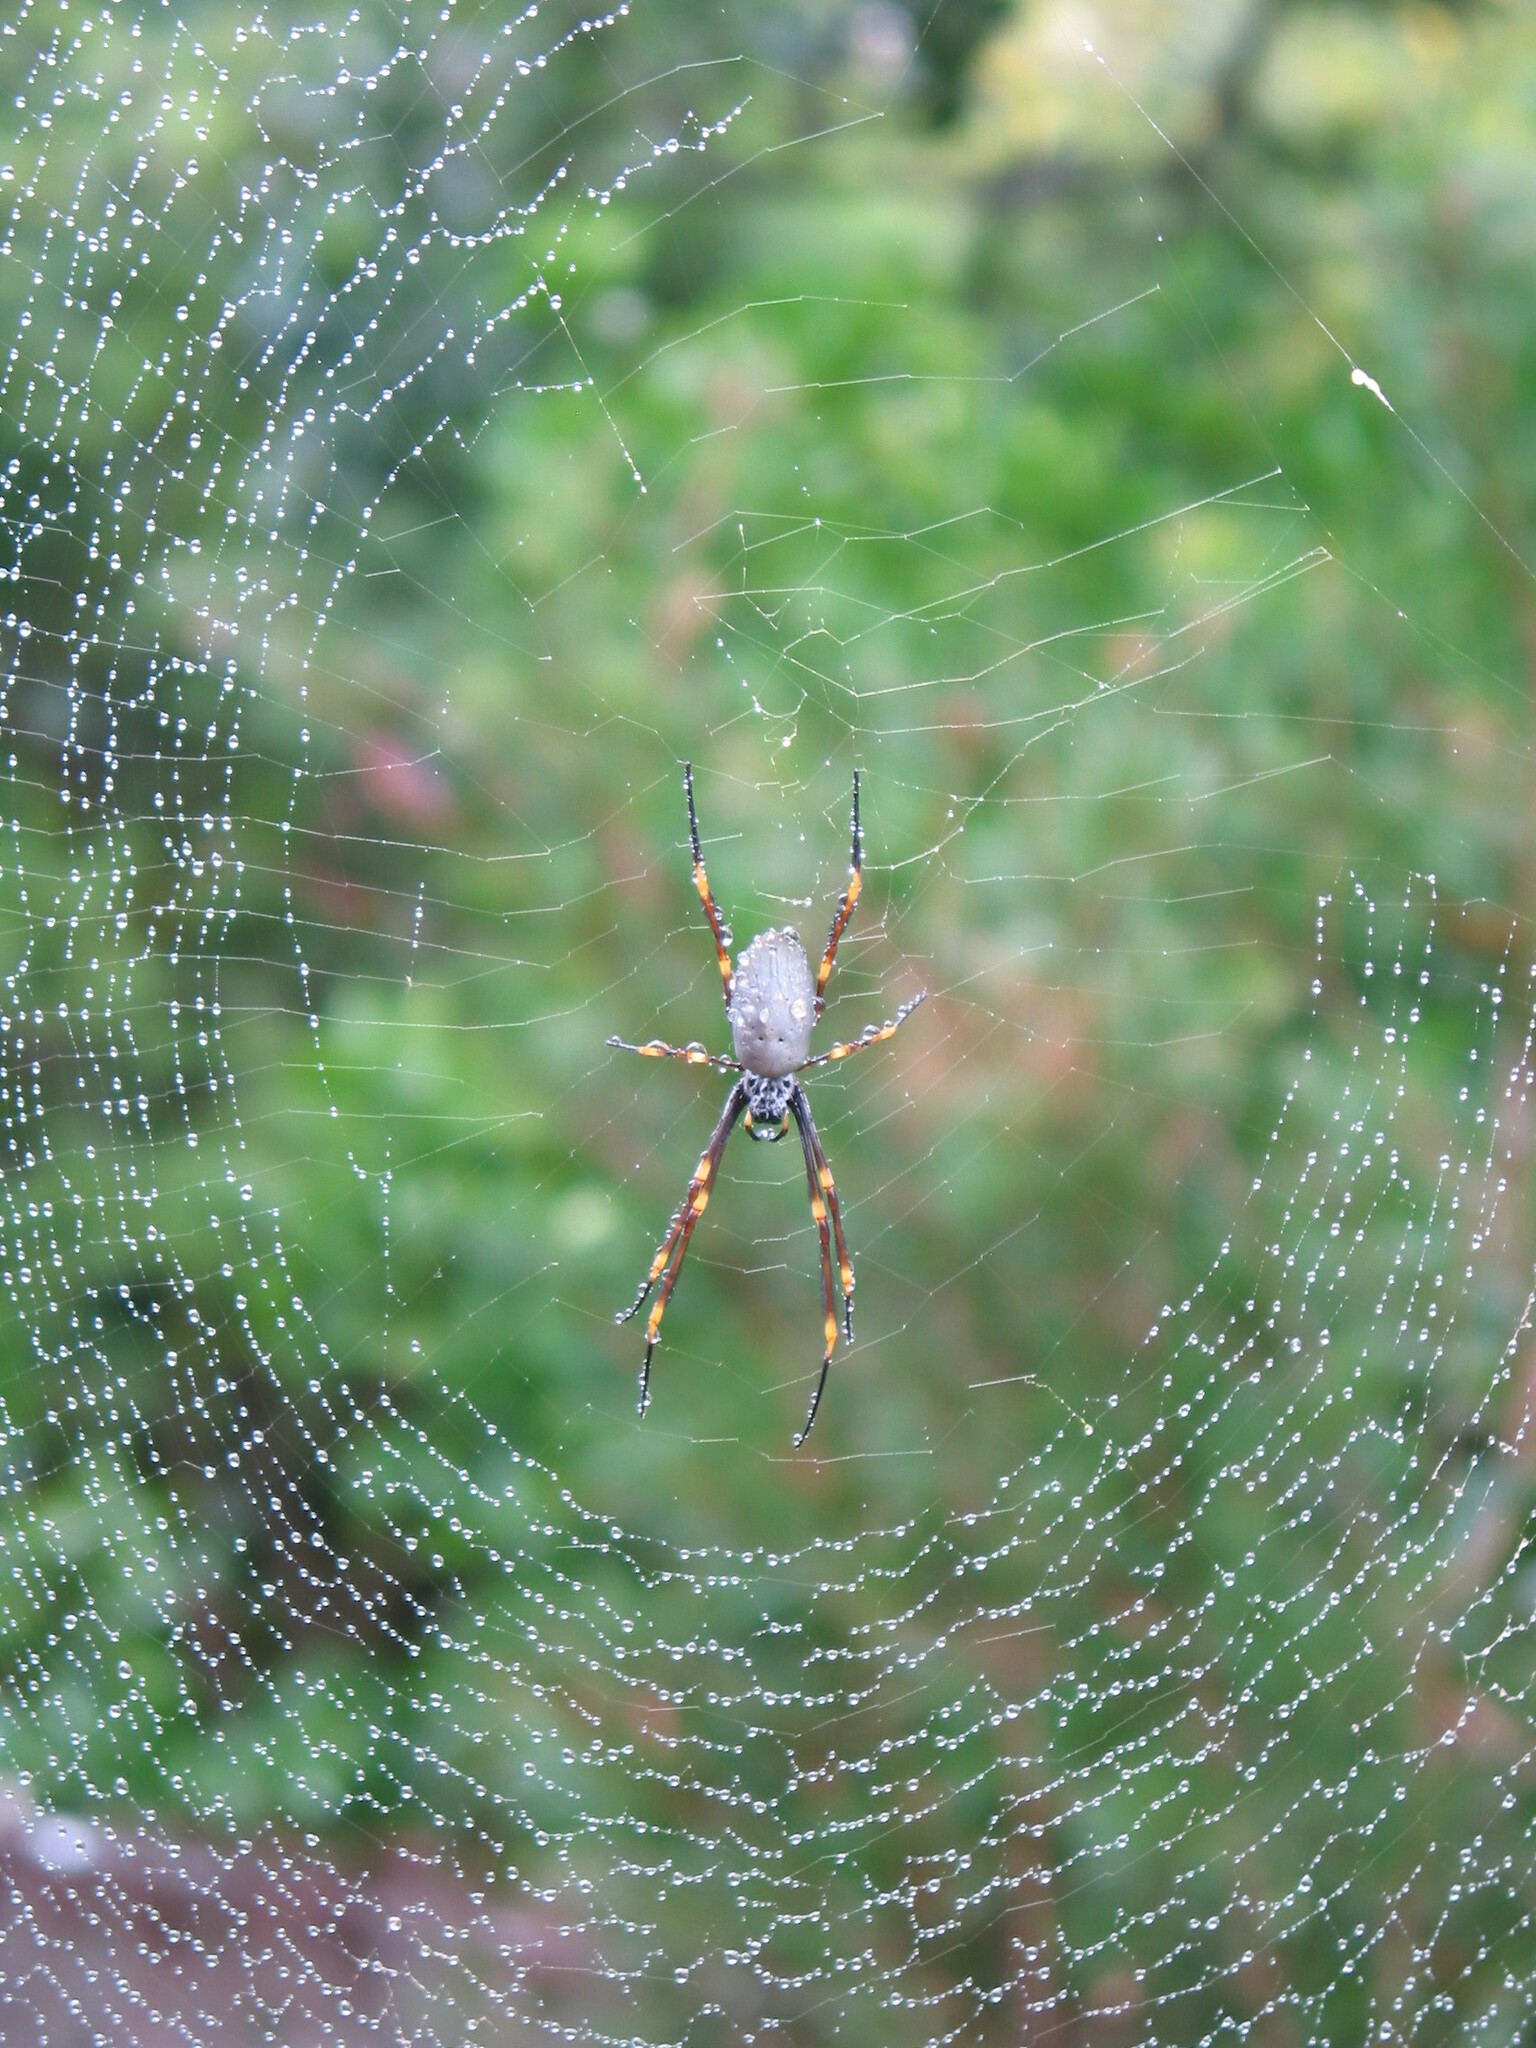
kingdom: Animalia
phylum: Arthropoda
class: Arachnida
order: Araneae
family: Araneidae
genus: Trichonephila
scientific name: Trichonephila plumipes
